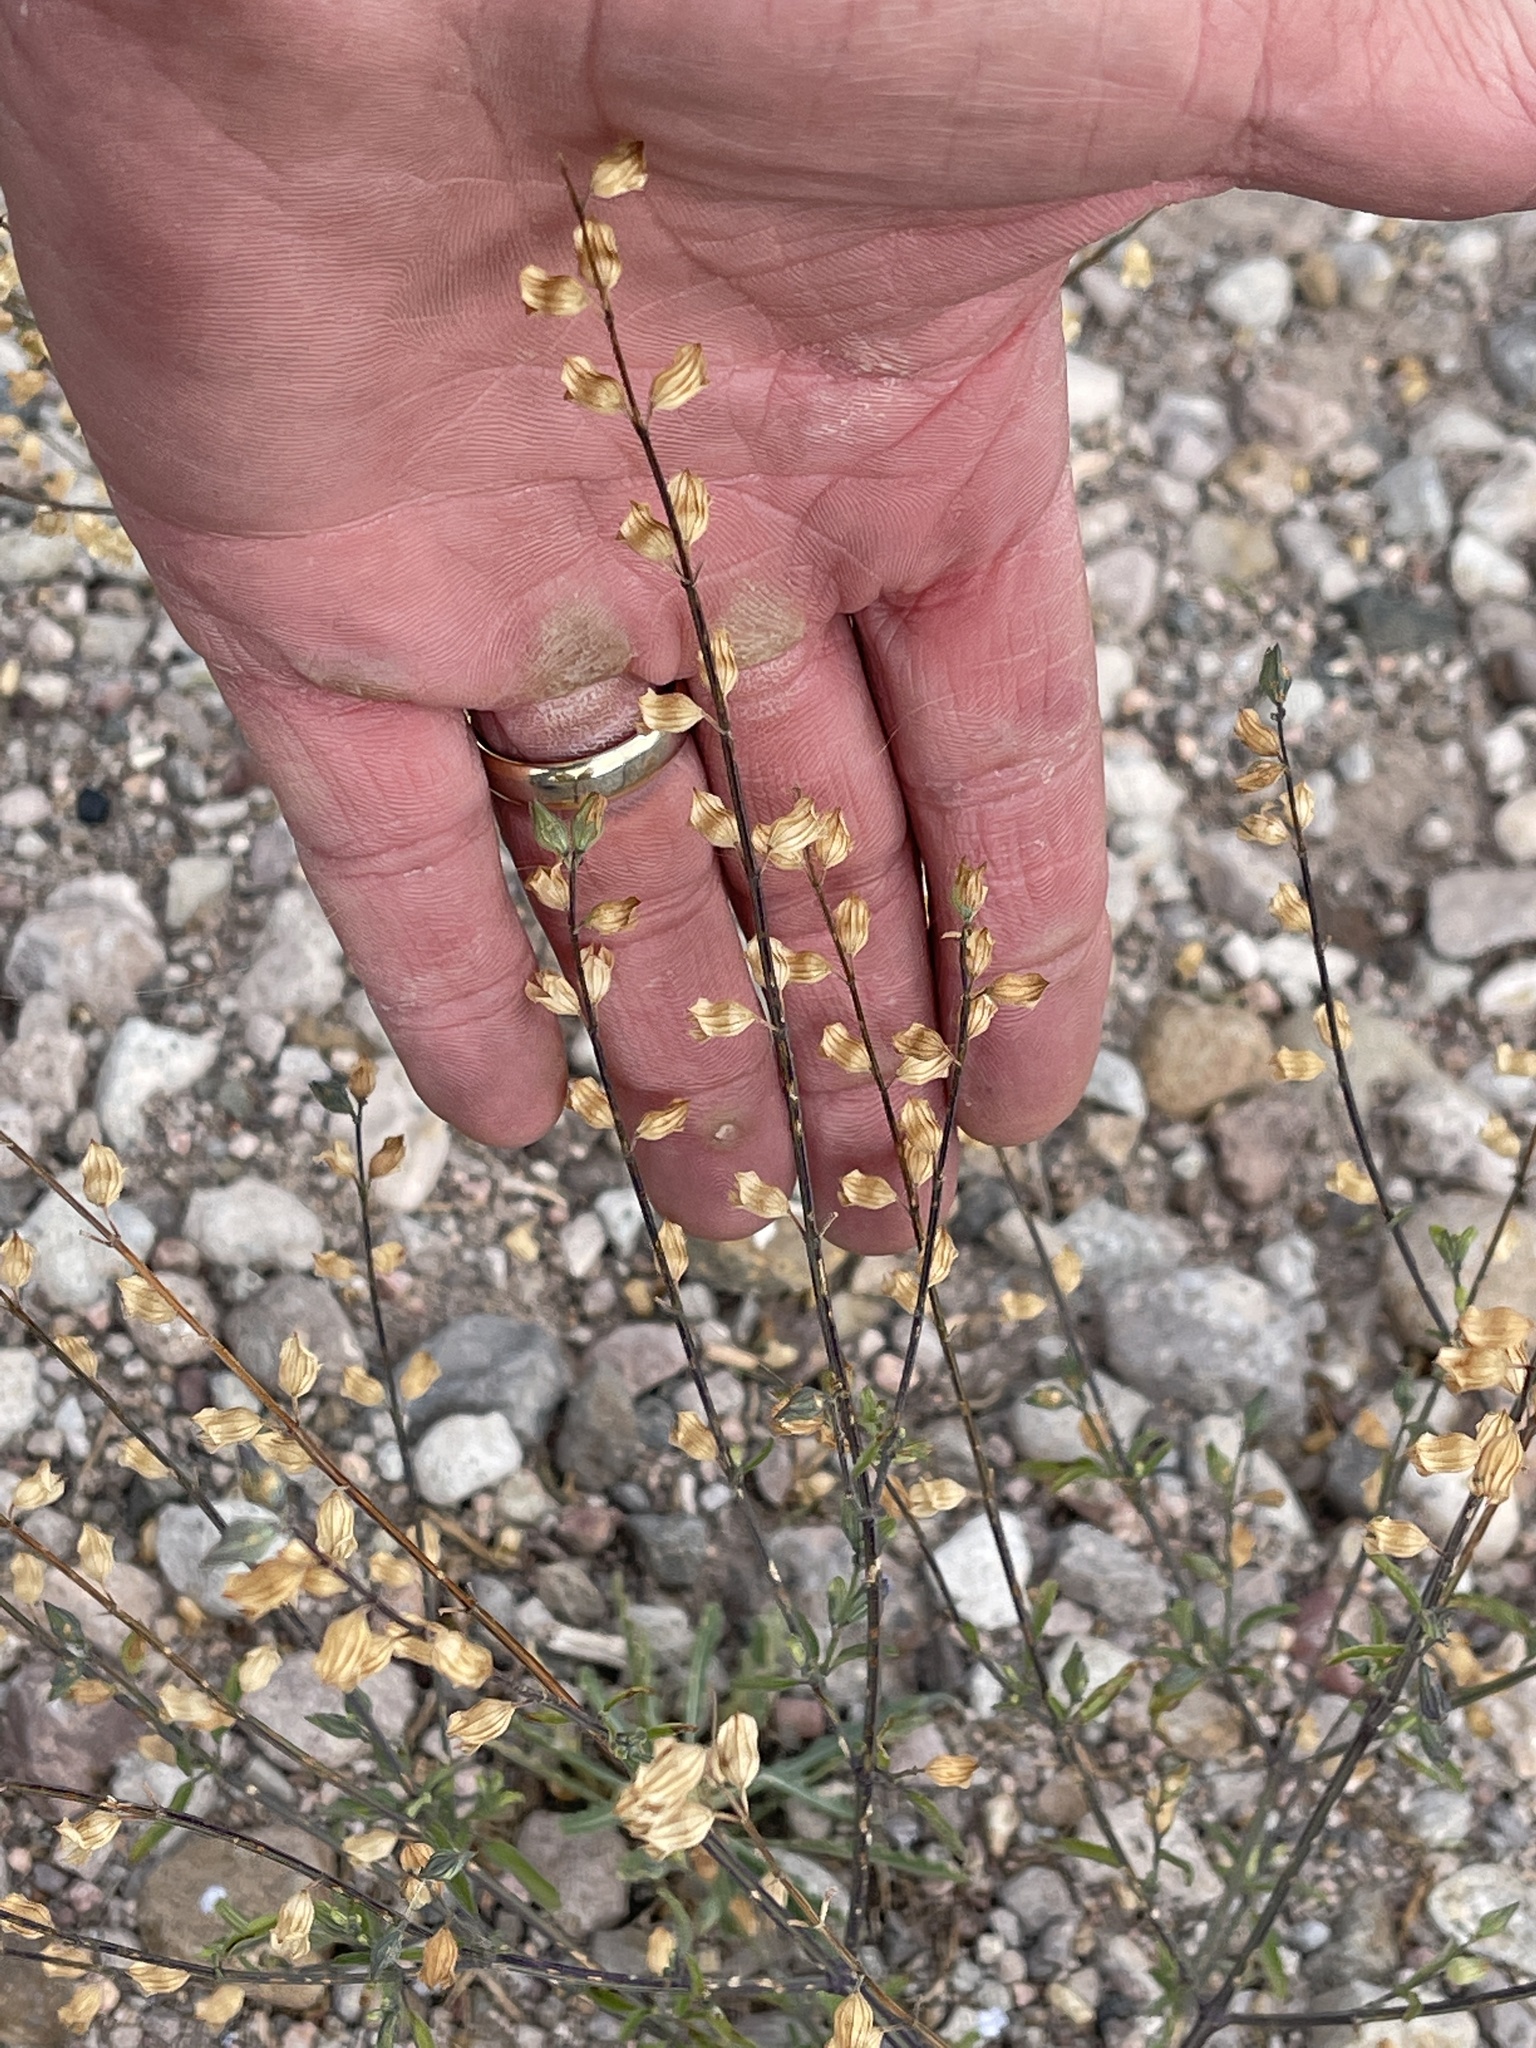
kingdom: Plantae
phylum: Tracheophyta
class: Magnoliopsida
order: Lamiales
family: Lamiaceae
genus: Salvia
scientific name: Salvia subincisa
